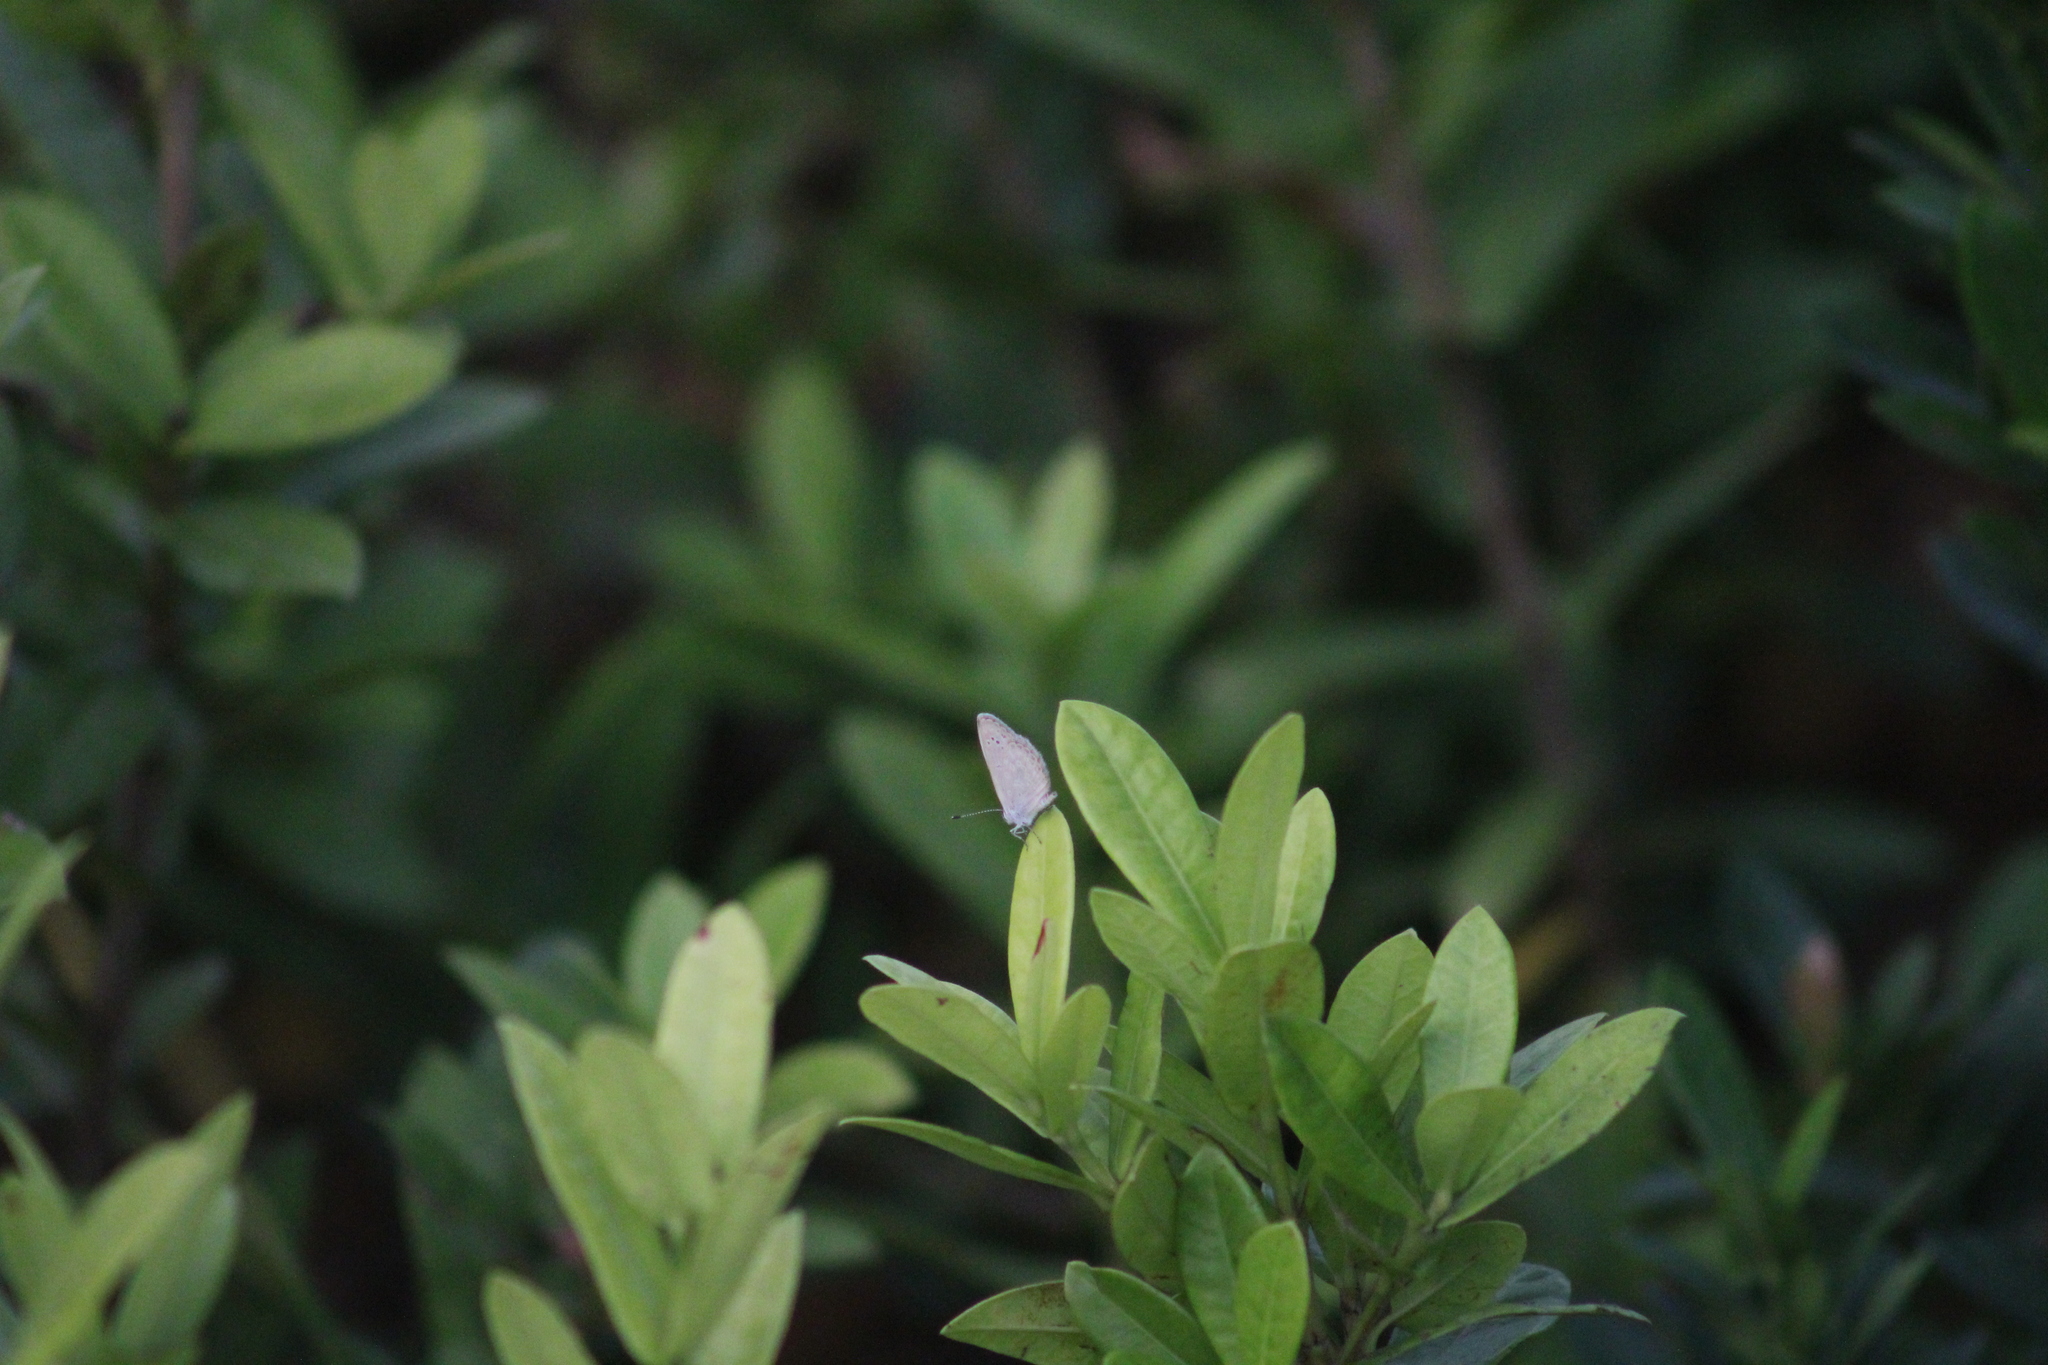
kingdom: Animalia
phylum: Arthropoda
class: Insecta
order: Lepidoptera
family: Lycaenidae
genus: Pseudozizeeria
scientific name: Pseudozizeeria maha
